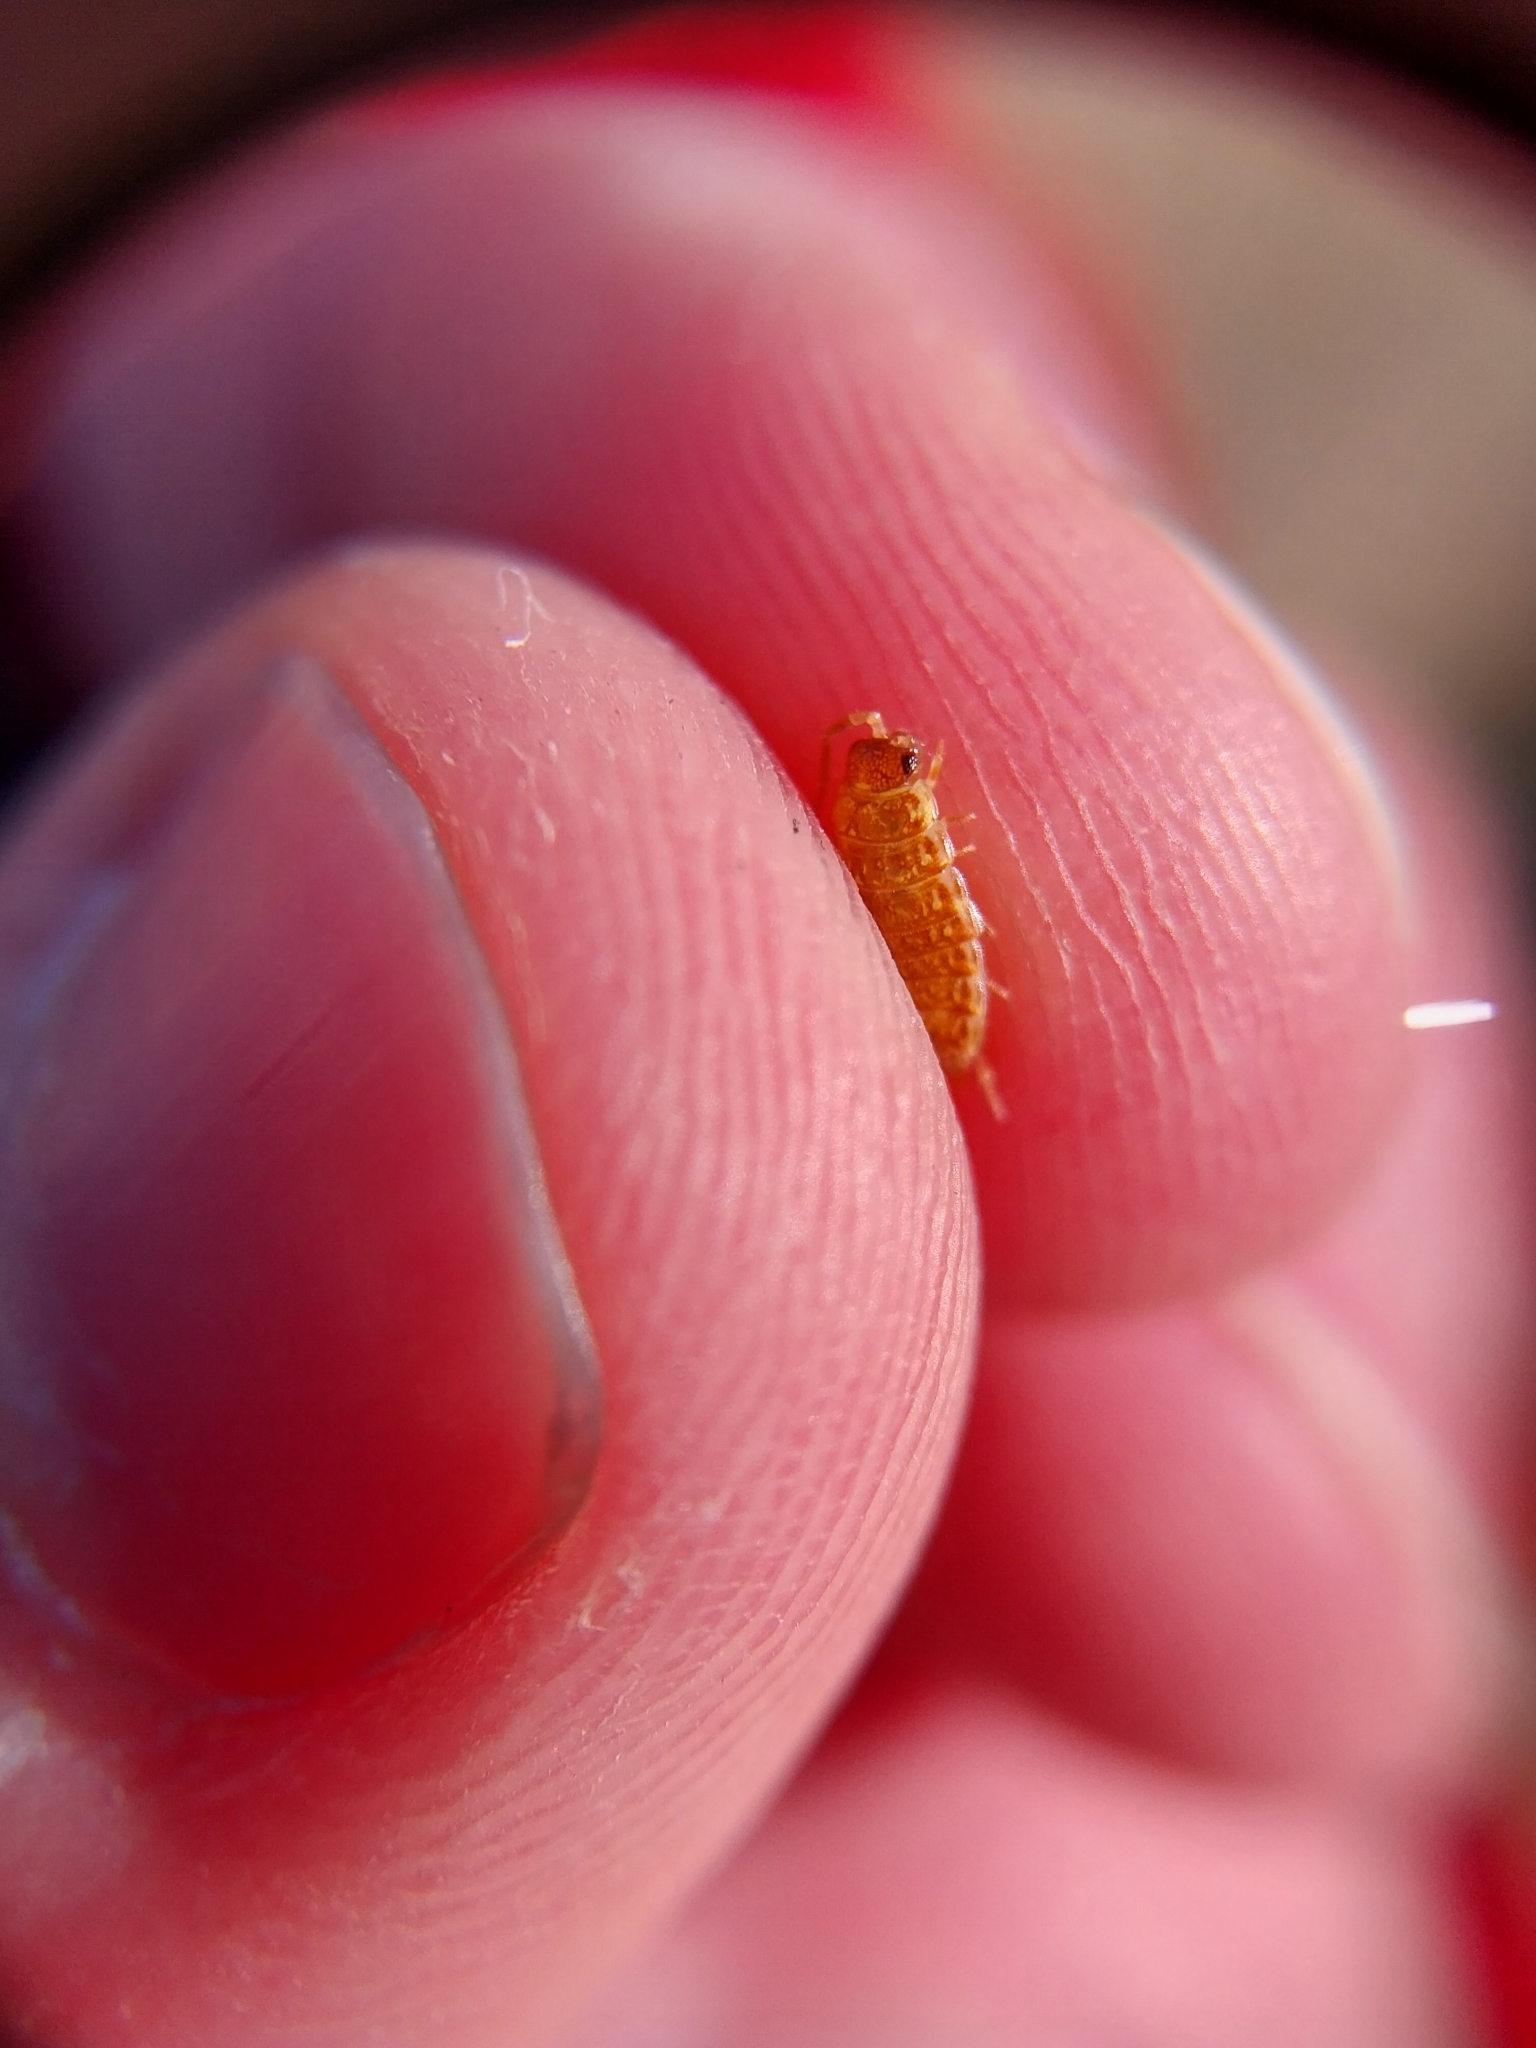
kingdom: Animalia
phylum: Arthropoda
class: Malacostraca
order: Isopoda
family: Philosciidae
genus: Philoscia
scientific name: Philoscia muscorum
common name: Common striped woodlouse
